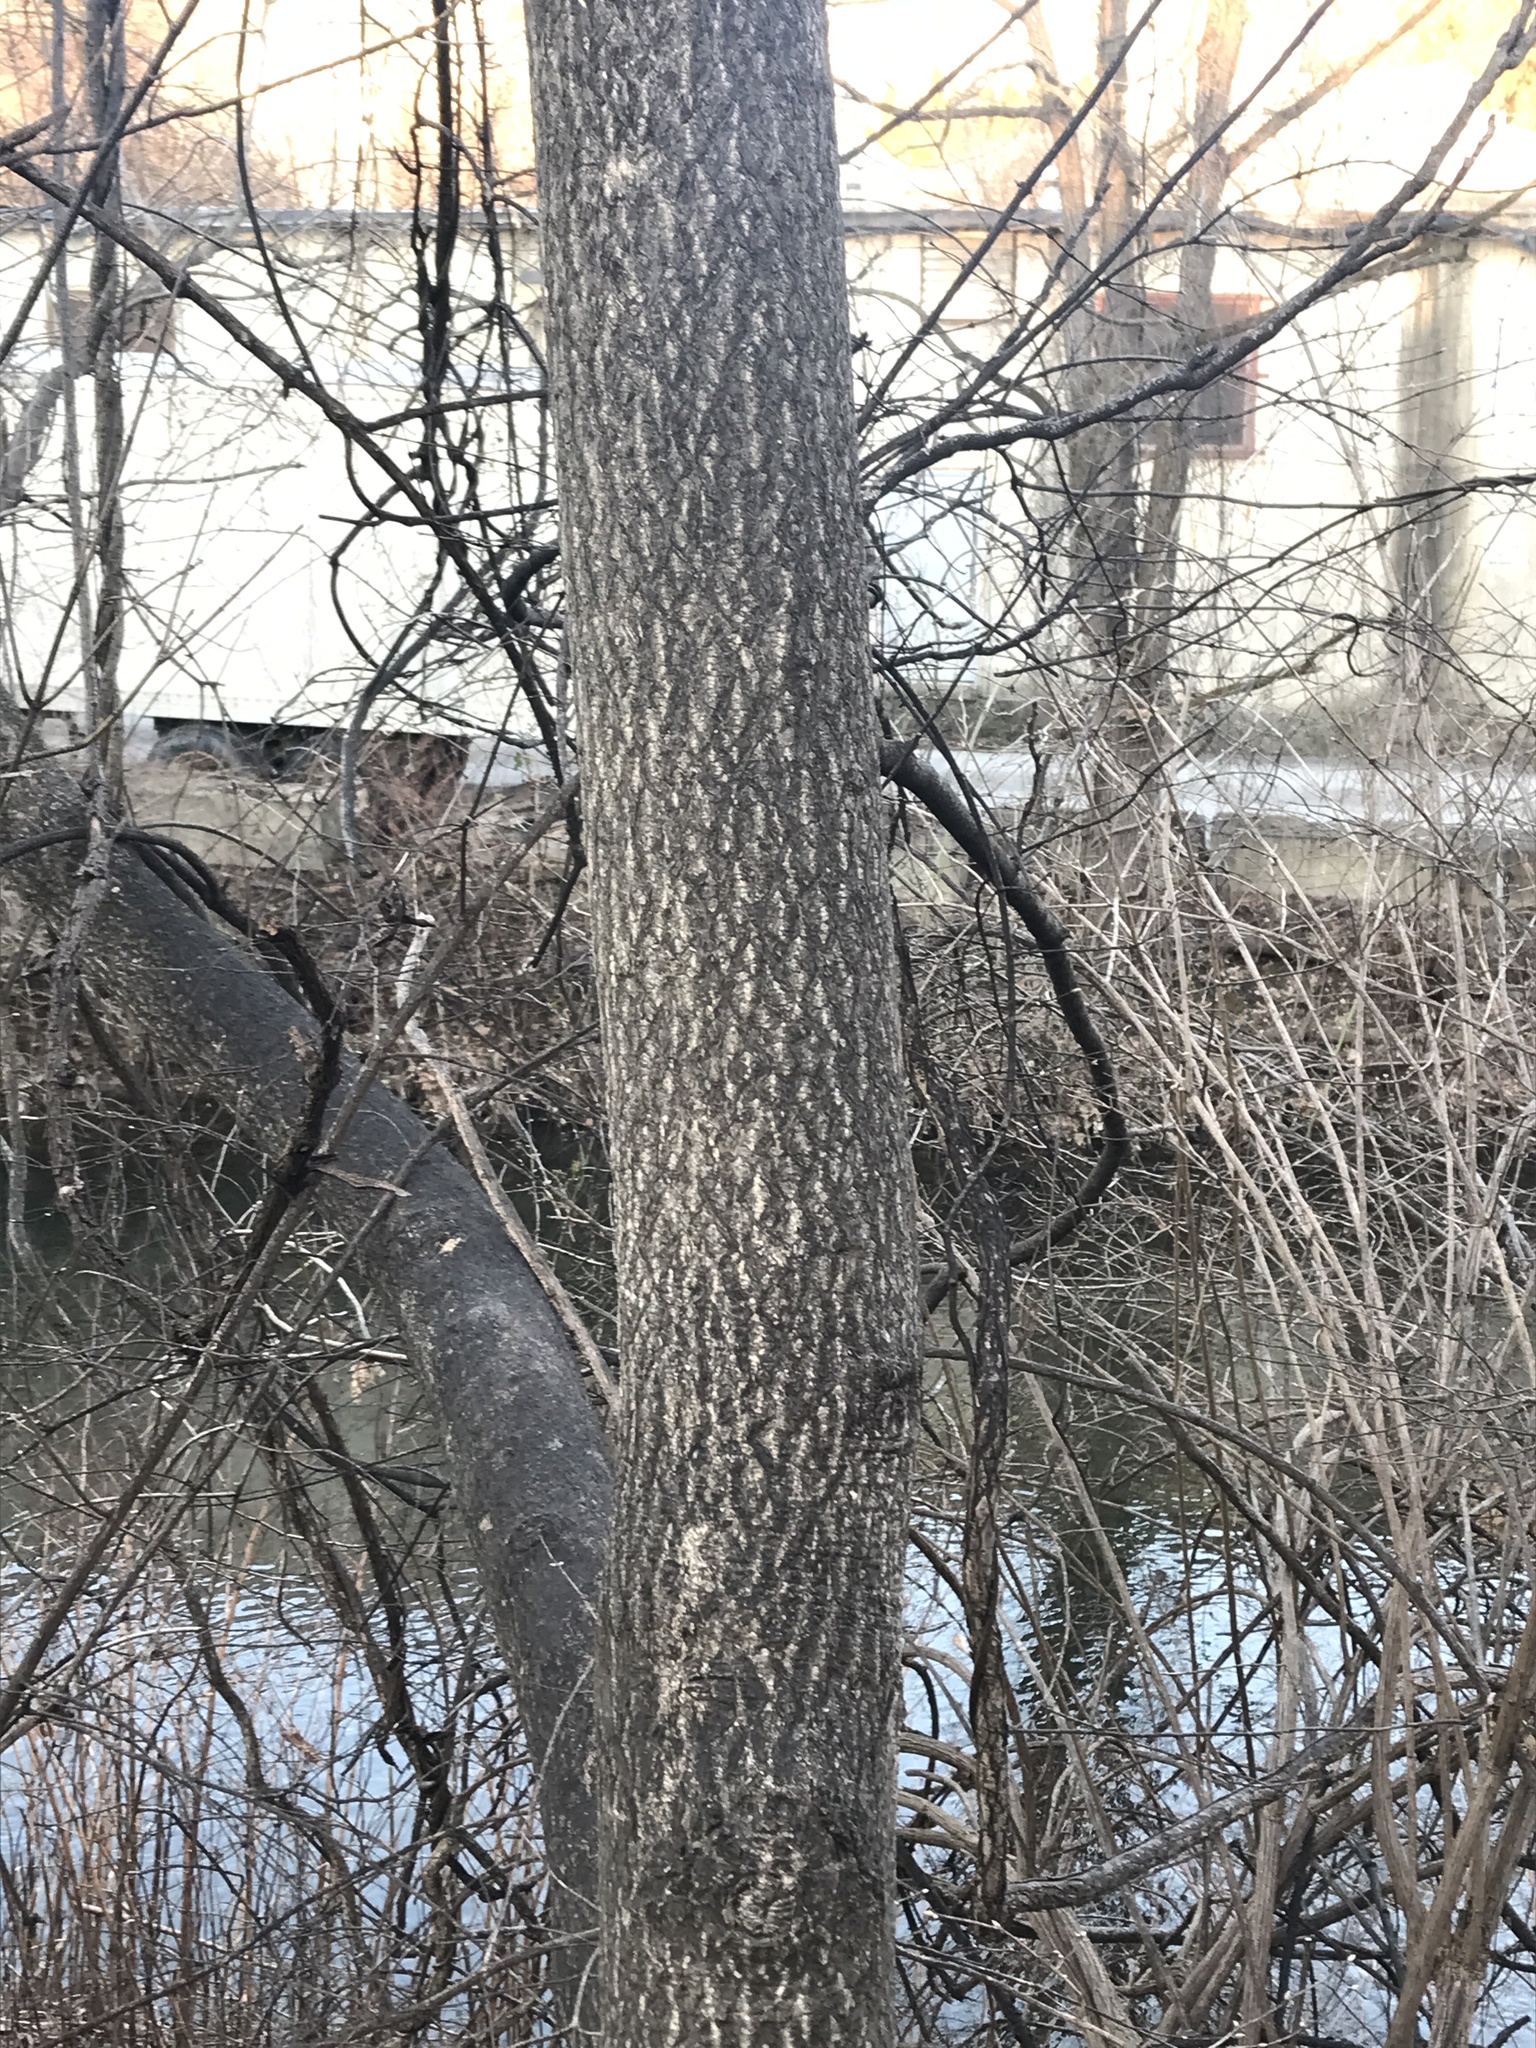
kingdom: Plantae
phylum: Tracheophyta
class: Magnoliopsida
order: Sapindales
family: Simaroubaceae
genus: Ailanthus
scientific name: Ailanthus altissima
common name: Tree-of-heaven
